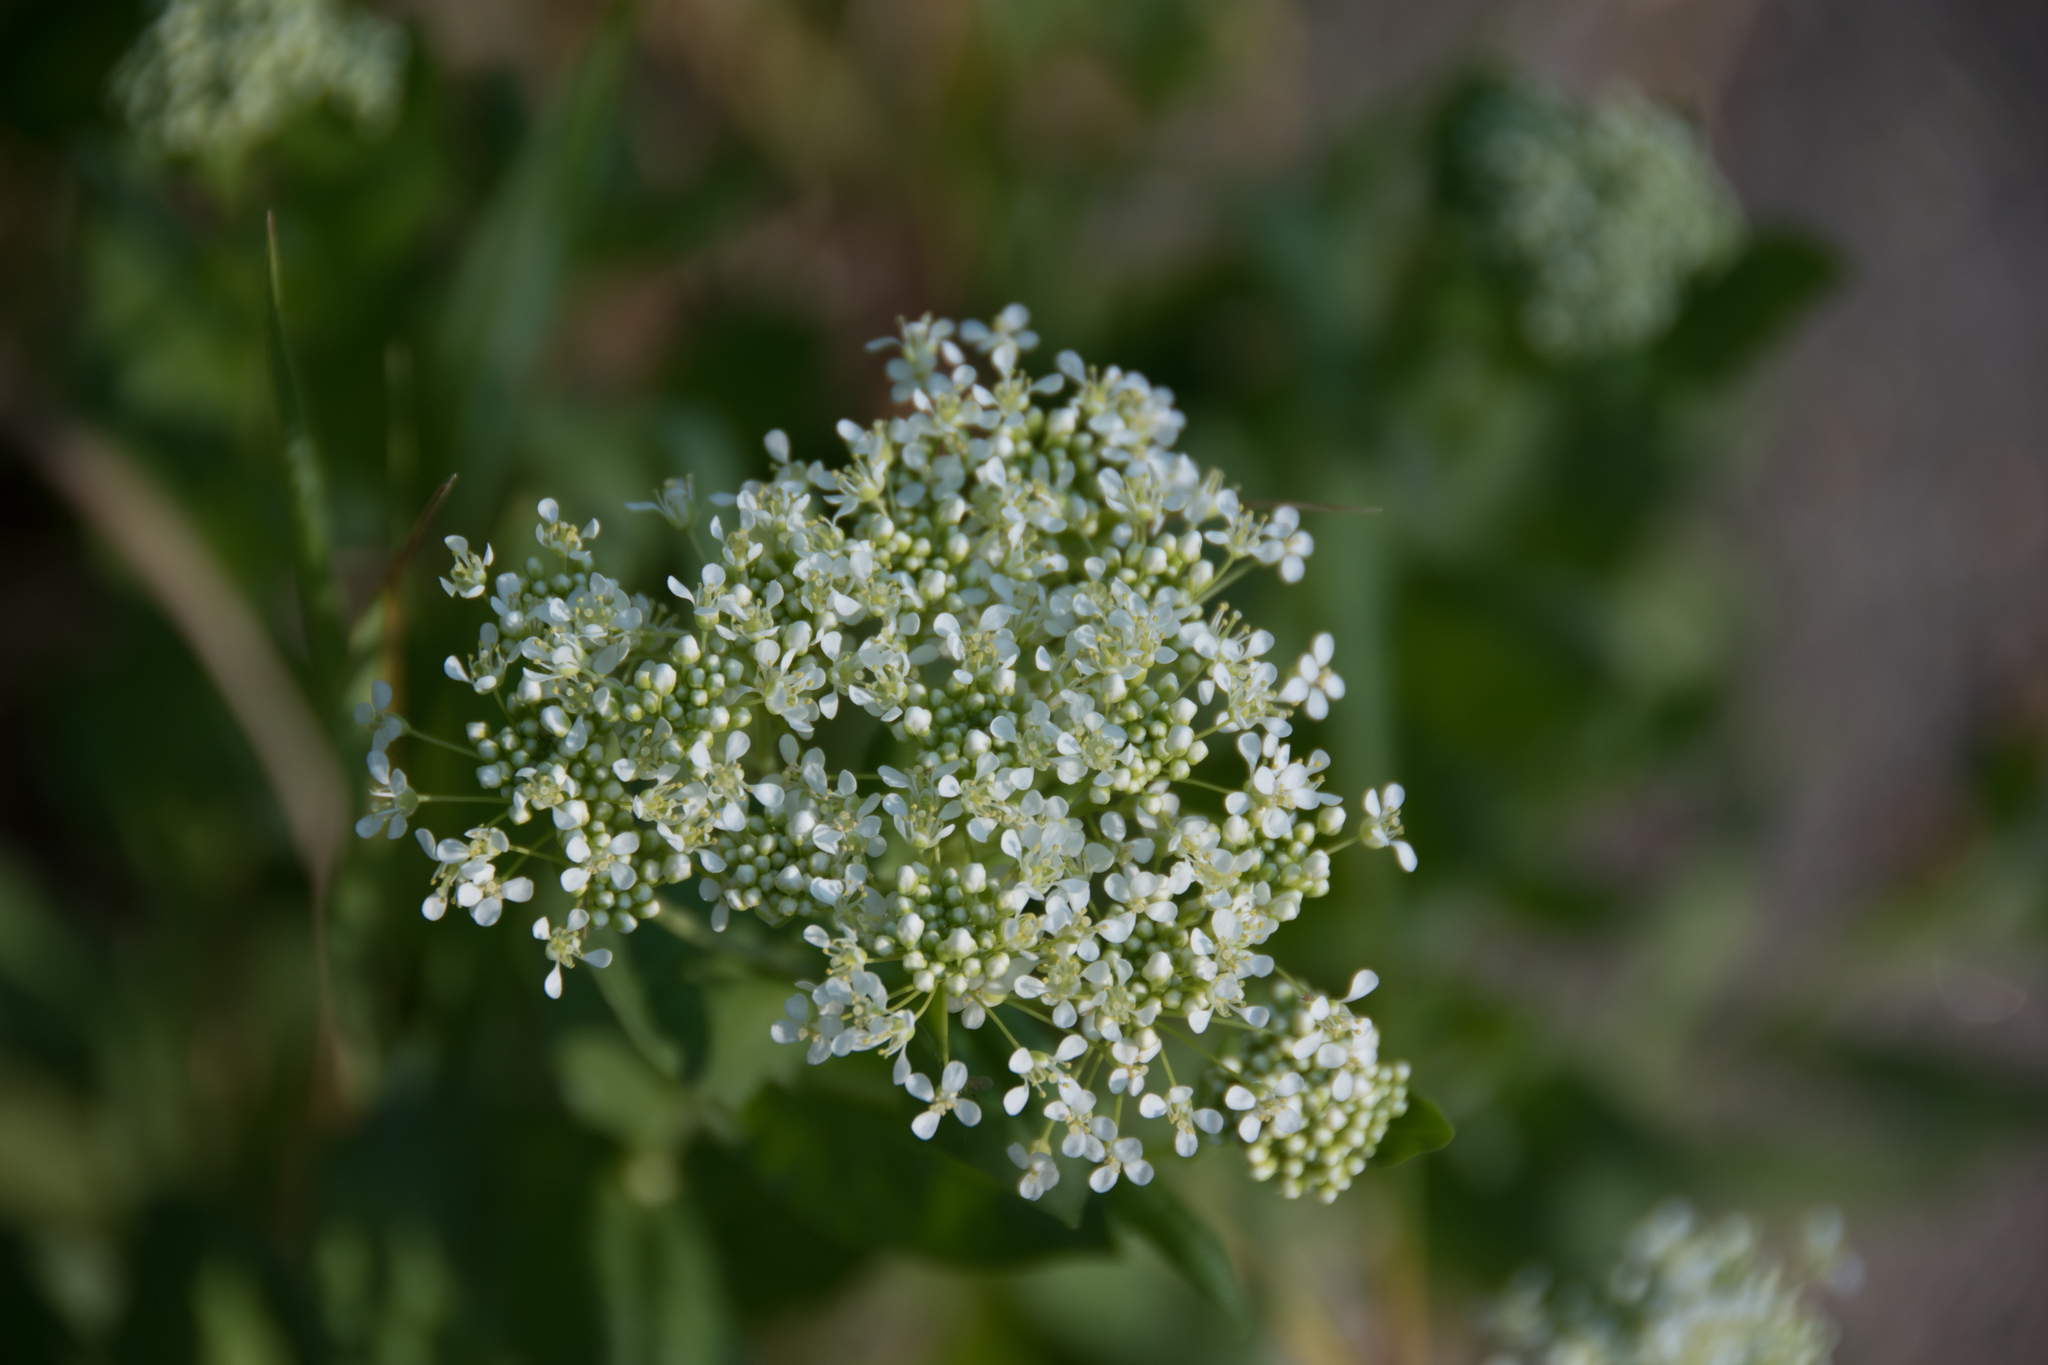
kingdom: Plantae
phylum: Tracheophyta
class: Magnoliopsida
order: Brassicales
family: Brassicaceae
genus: Lepidium
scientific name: Lepidium draba
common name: Hoary cress
